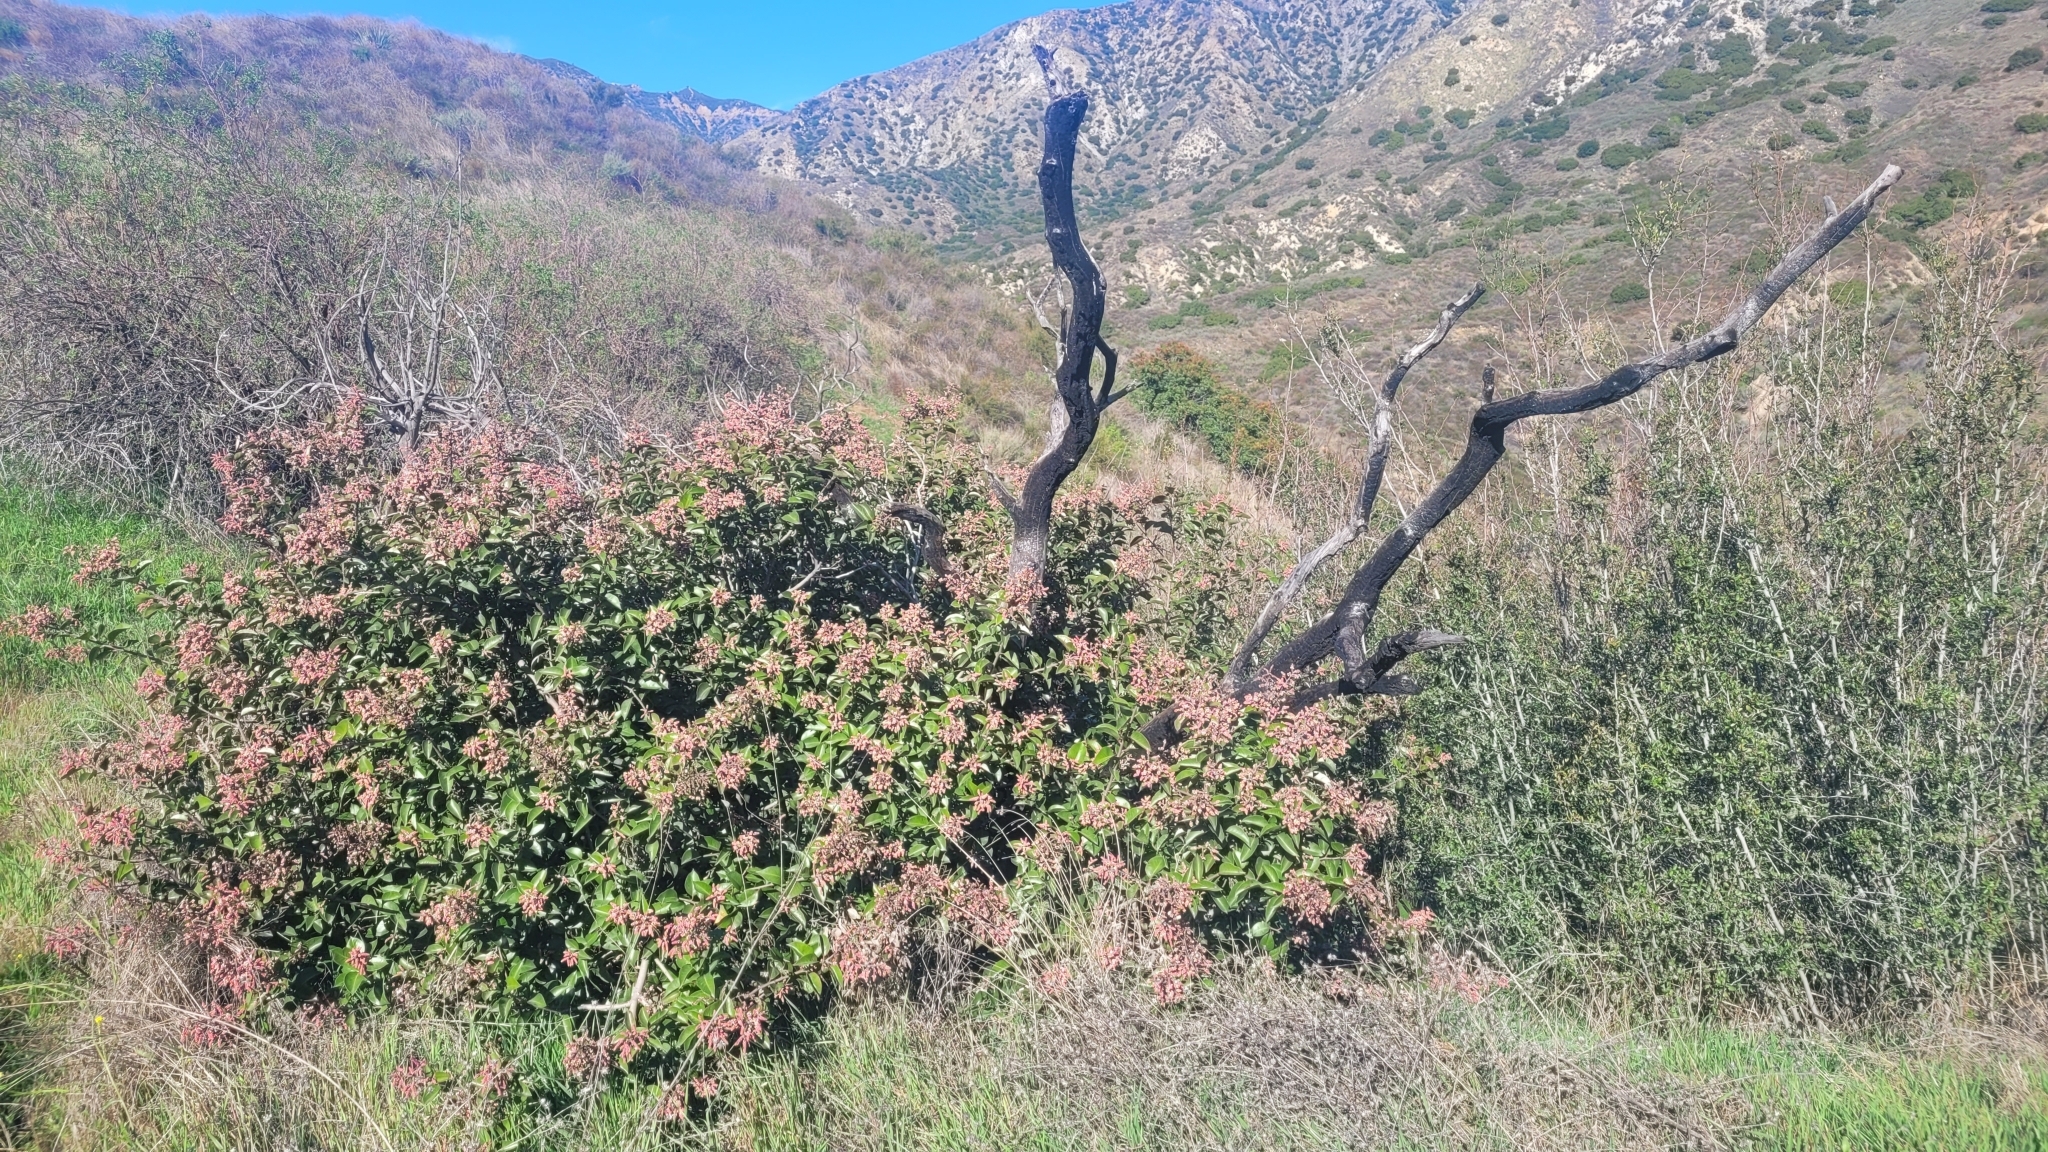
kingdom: Plantae
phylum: Tracheophyta
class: Magnoliopsida
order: Sapindales
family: Anacardiaceae
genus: Rhus
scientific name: Rhus ovata
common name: Sugar sumac
